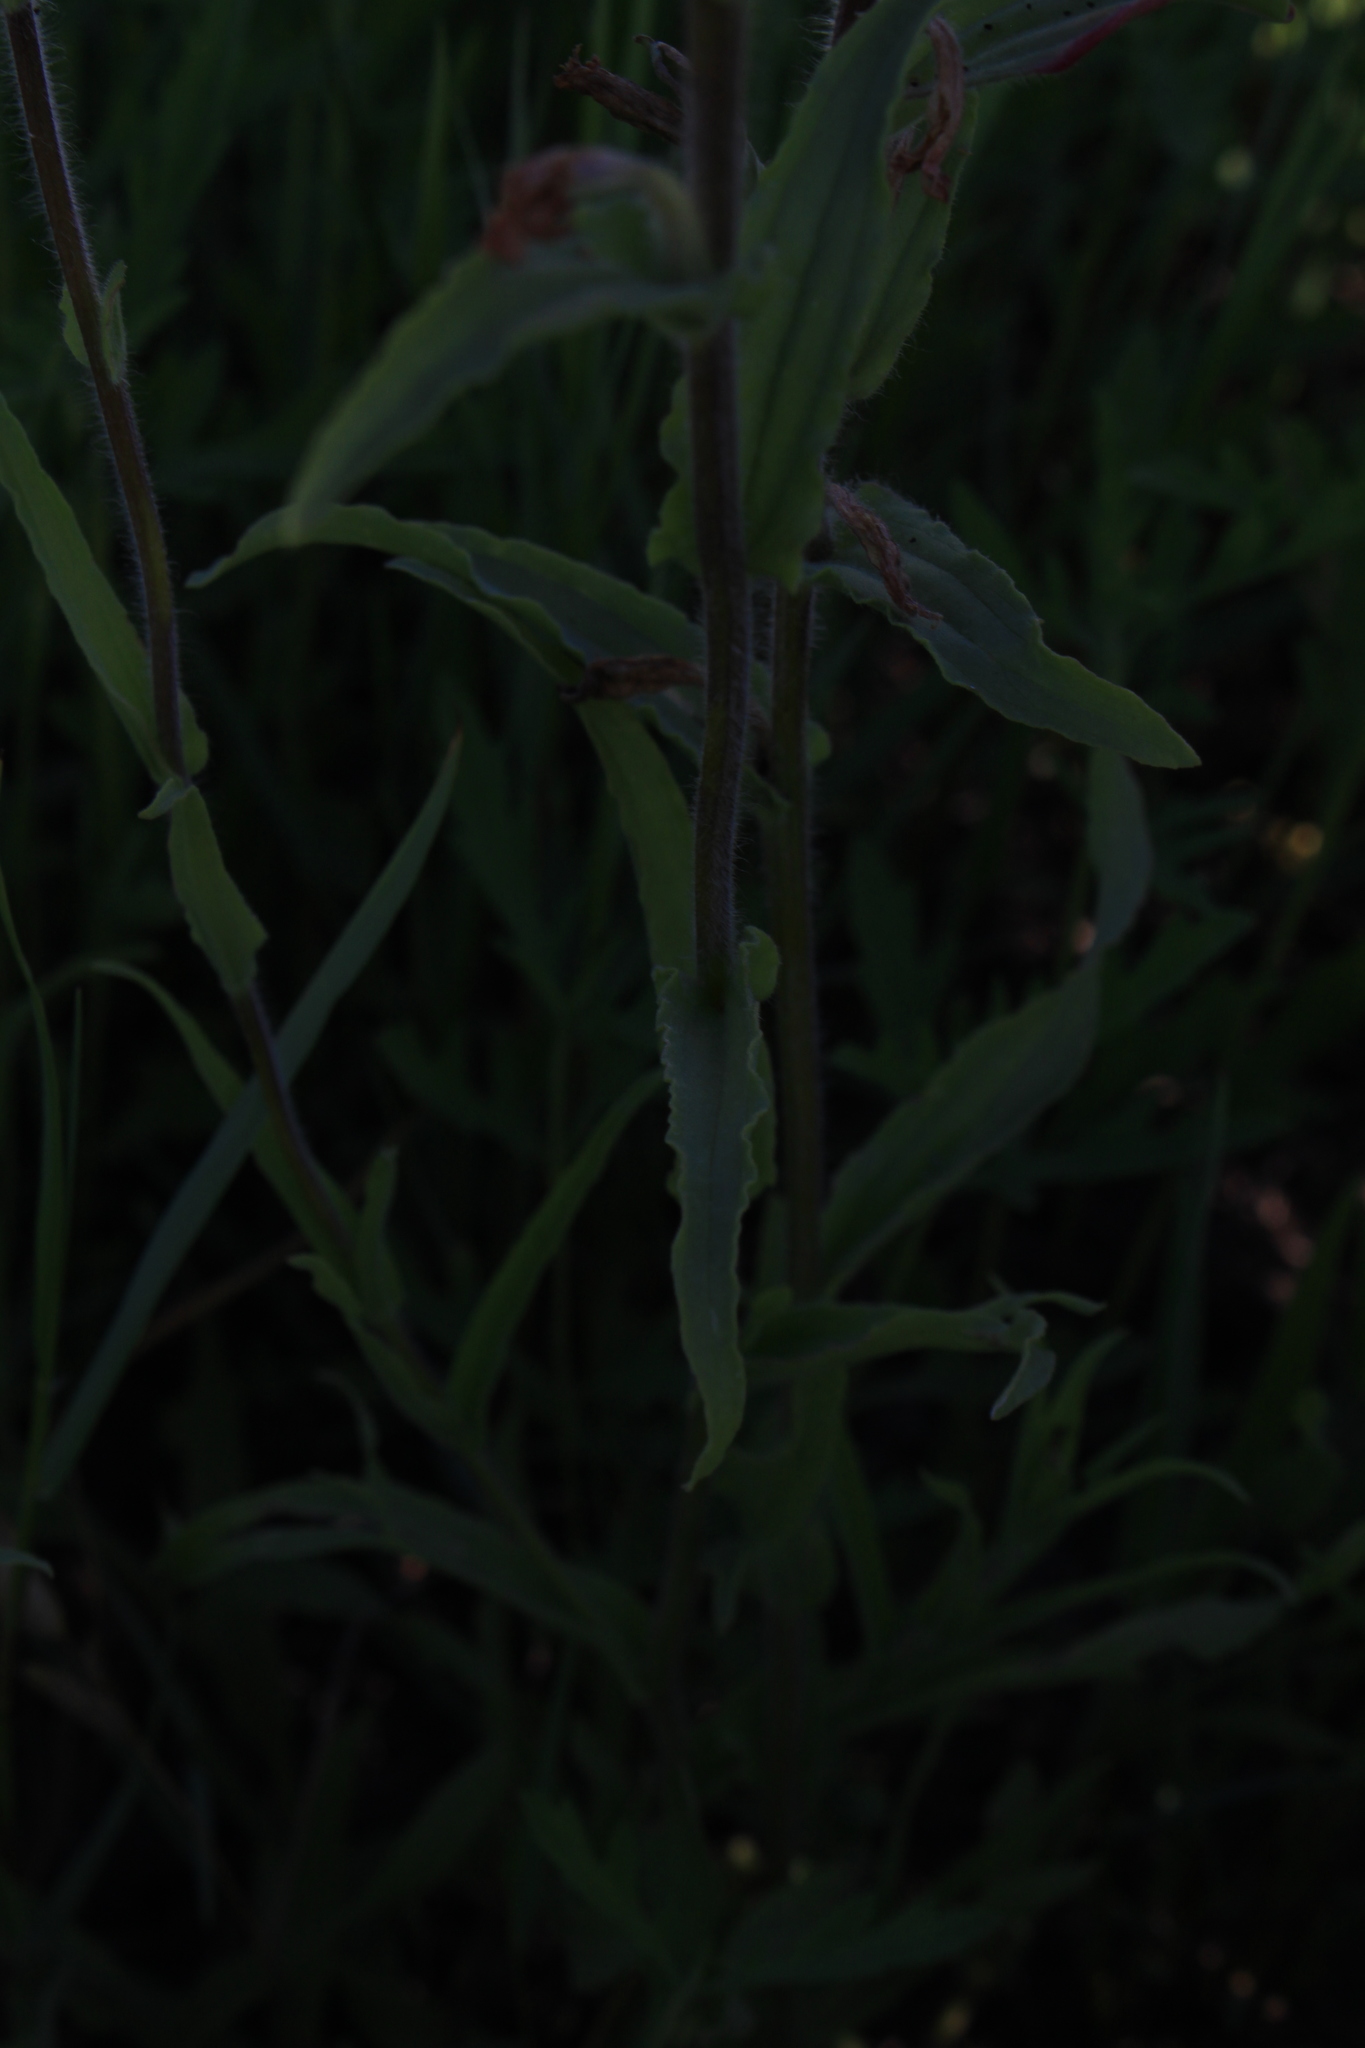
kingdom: Plantae
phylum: Tracheophyta
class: Magnoliopsida
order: Lamiales
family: Orobanchaceae
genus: Castilleja
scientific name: Castilleja indivisa
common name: Texas paintbrush
